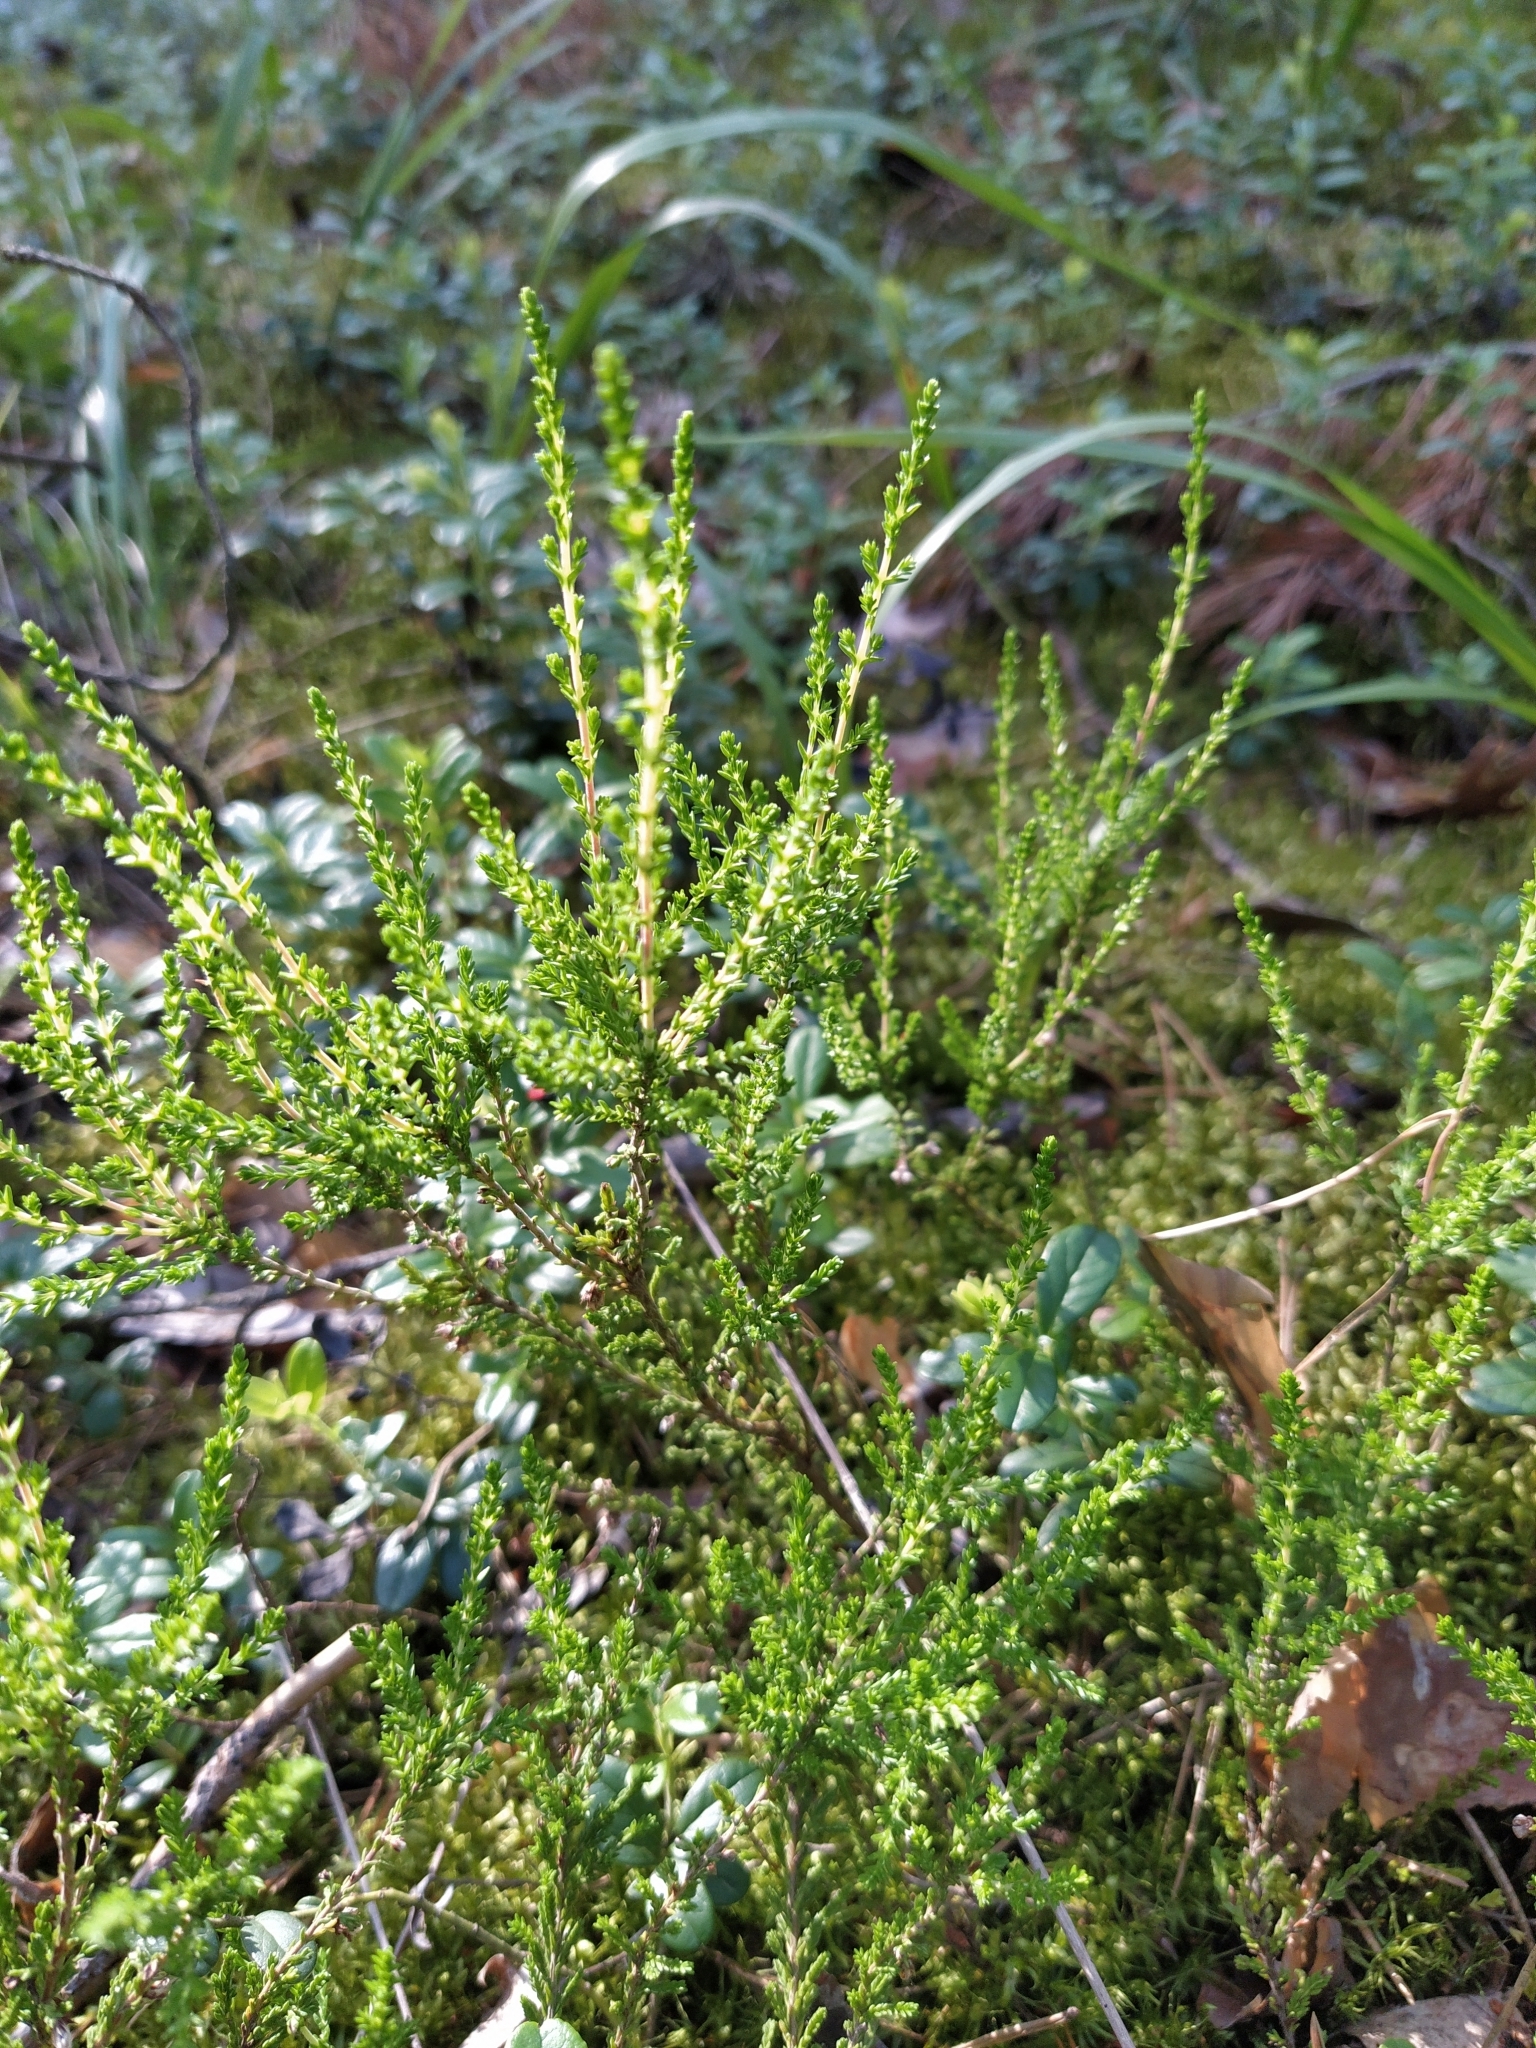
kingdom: Plantae
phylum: Tracheophyta
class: Magnoliopsida
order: Ericales
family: Ericaceae
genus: Calluna
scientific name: Calluna vulgaris
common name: Heather
